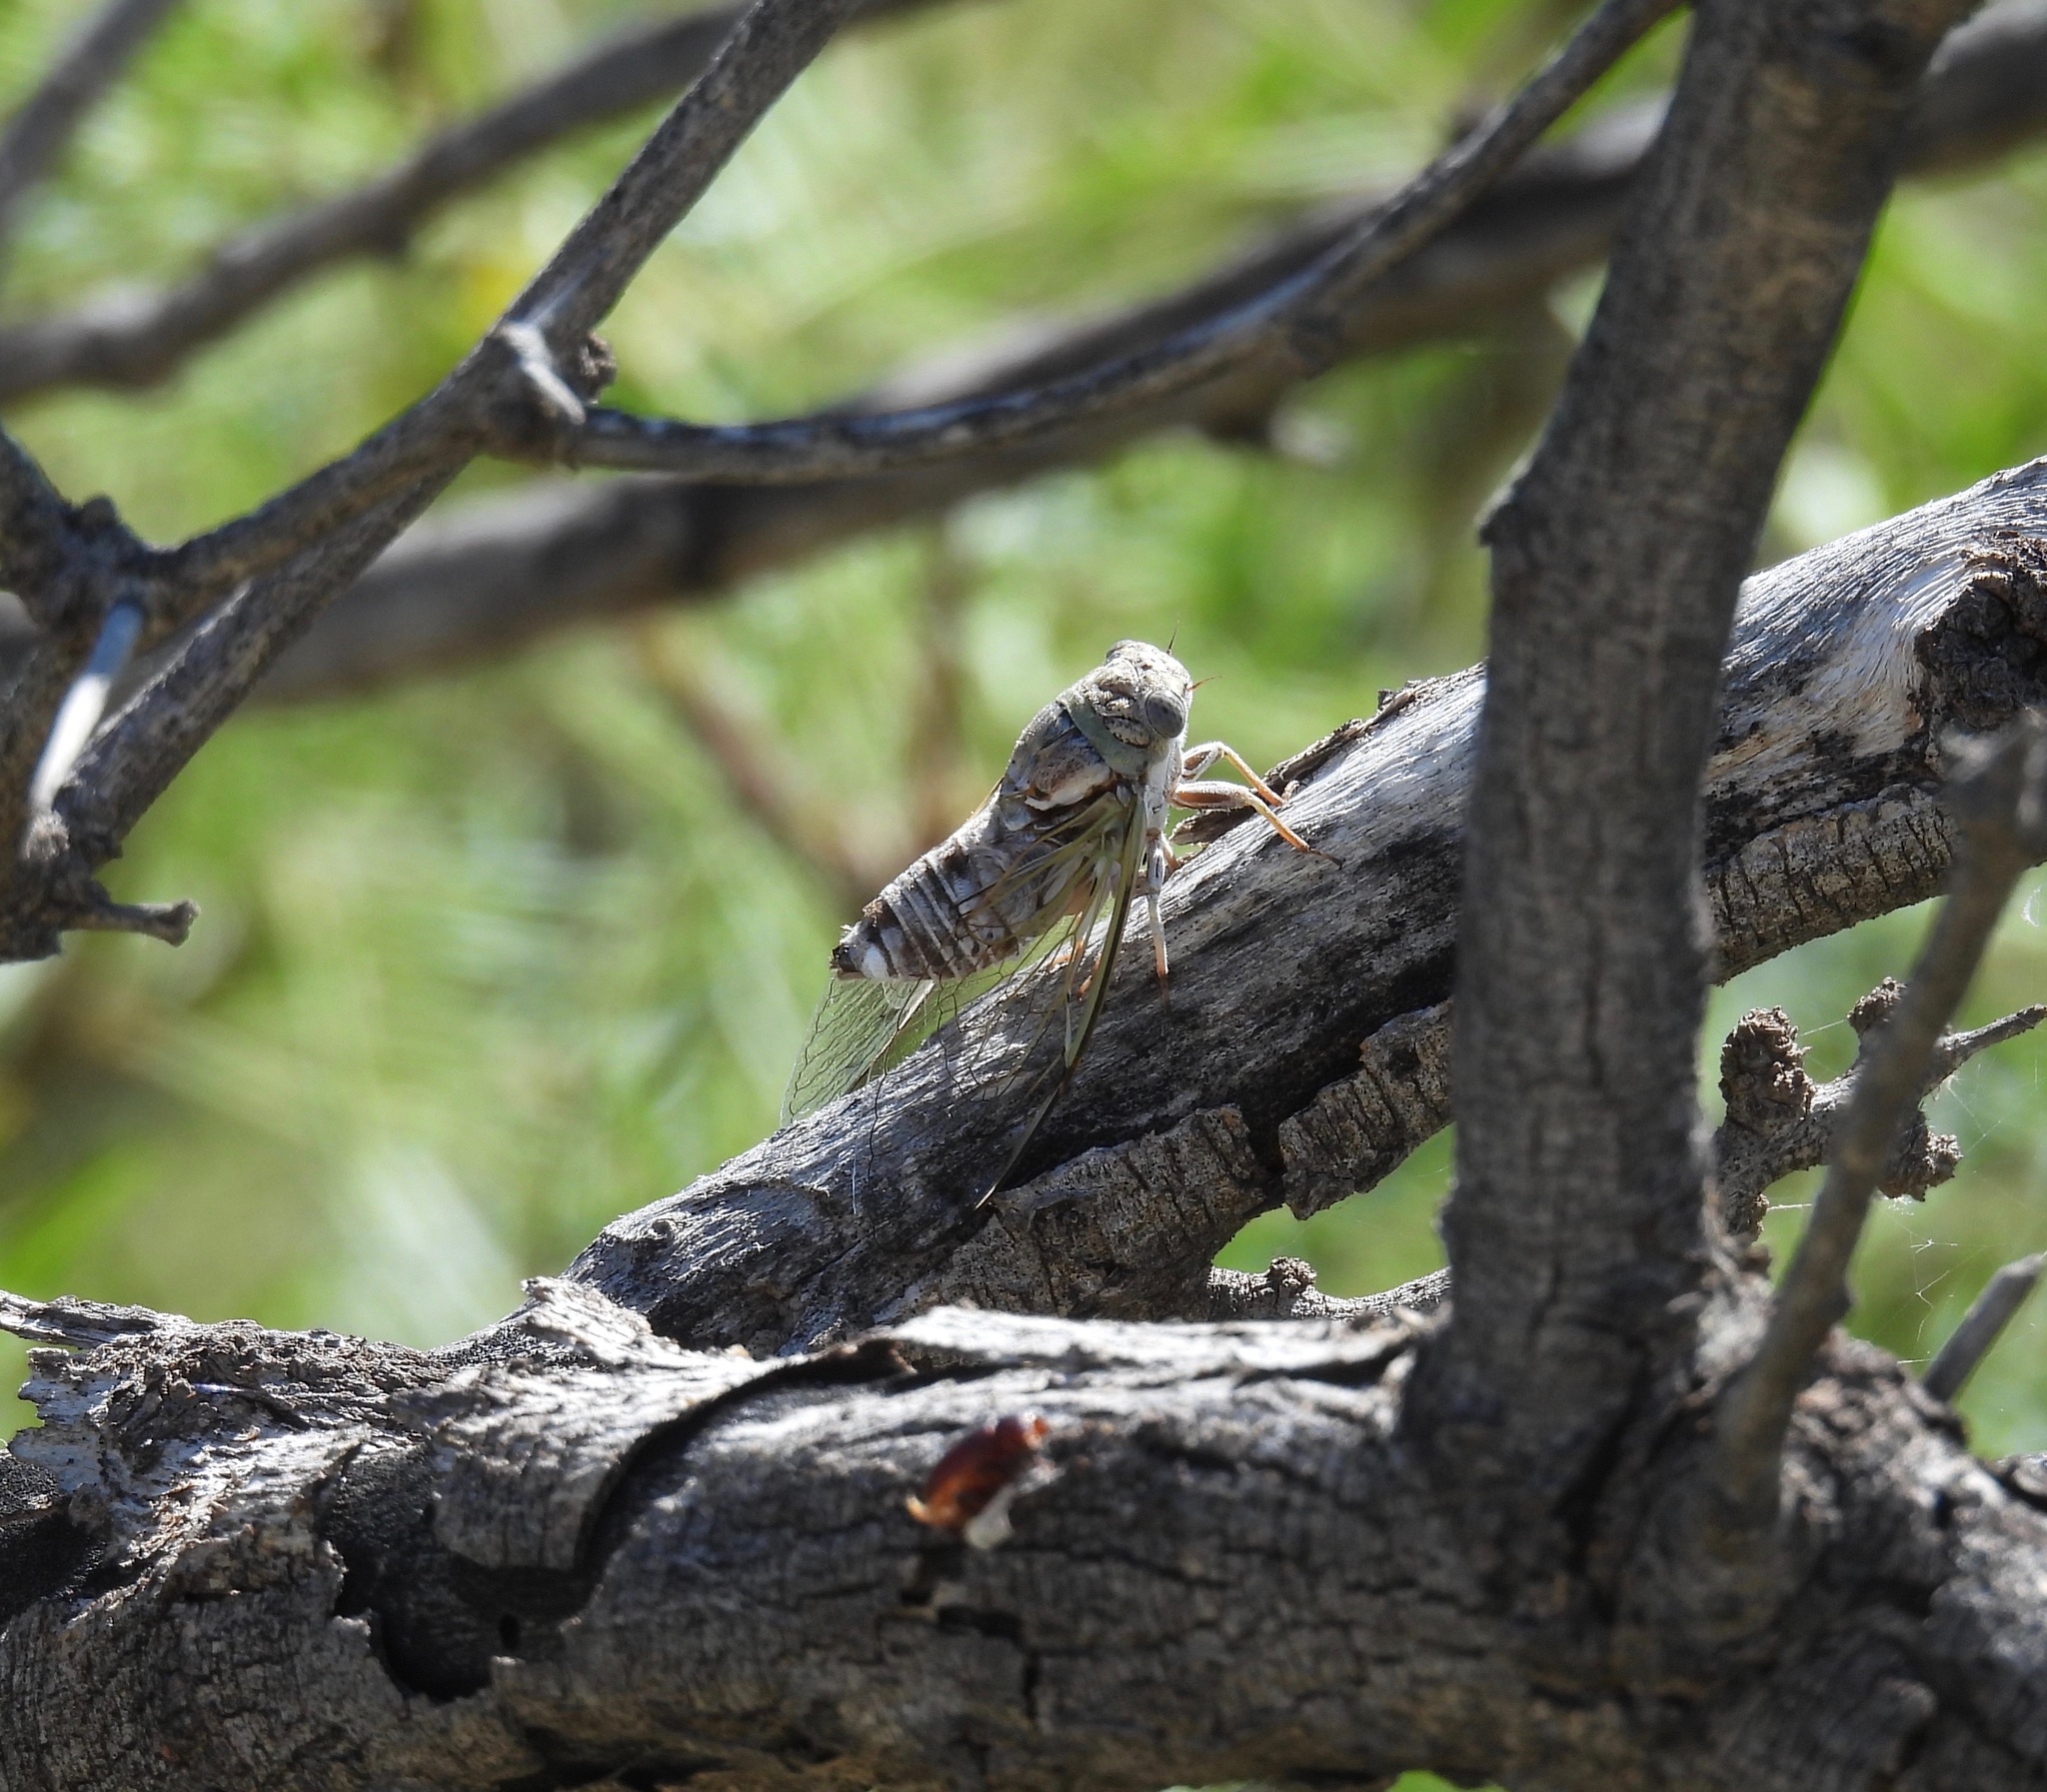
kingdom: Animalia
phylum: Arthropoda
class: Insecta
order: Hemiptera
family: Cicadidae
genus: Diceroprocta
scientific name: Diceroprocta texana
